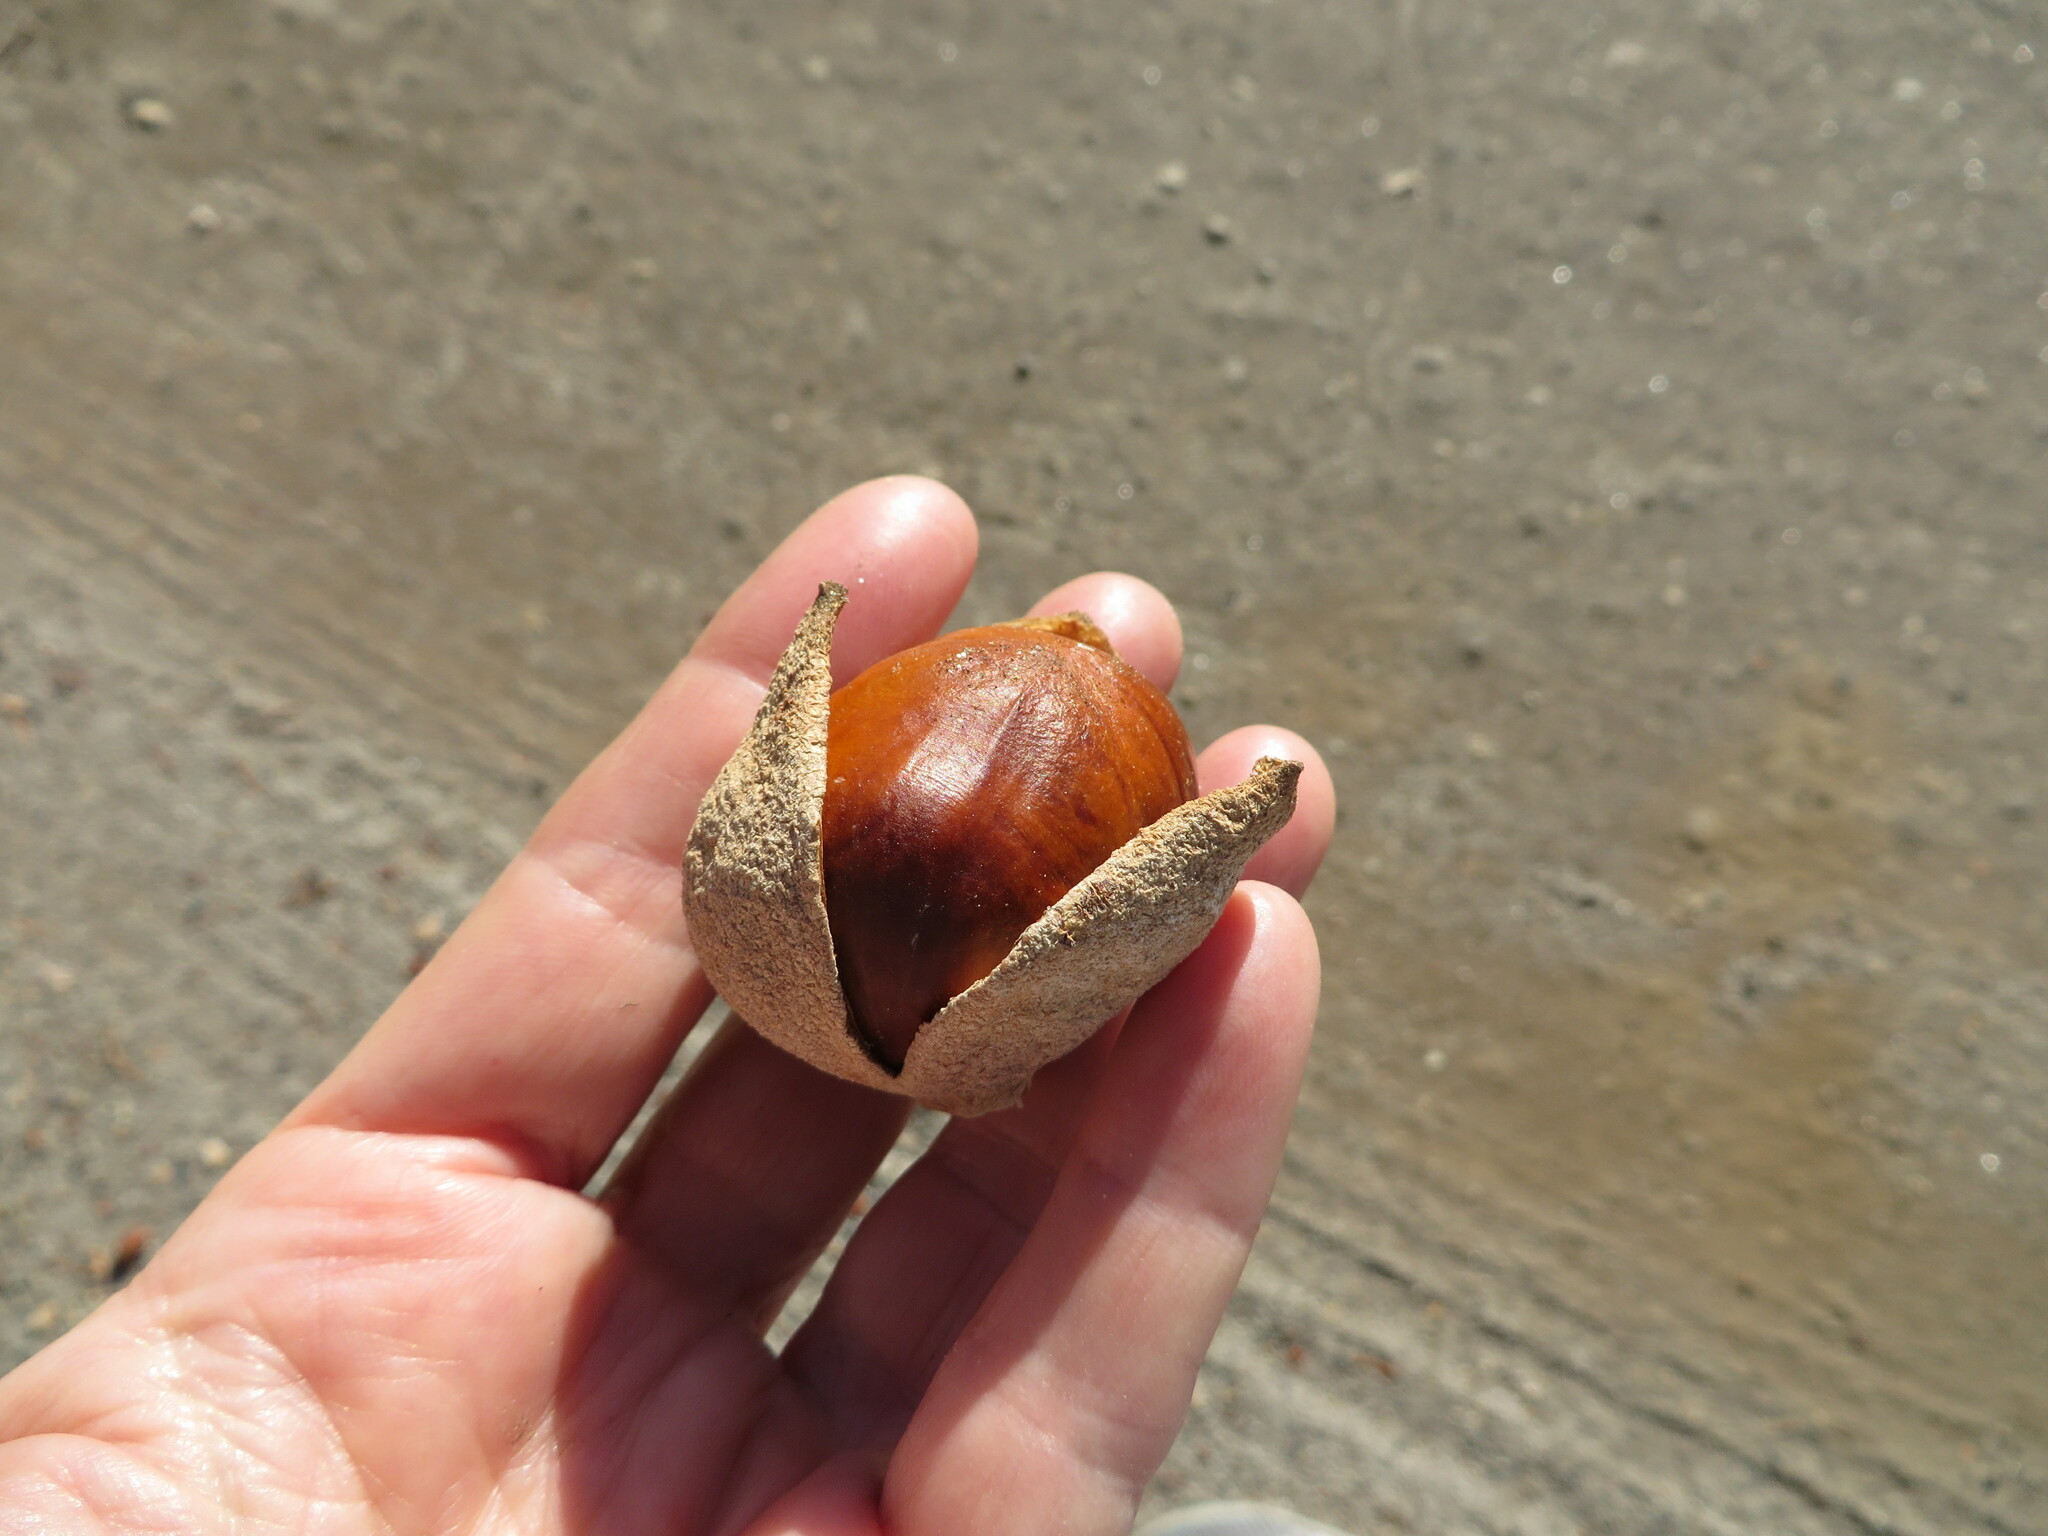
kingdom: Plantae
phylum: Tracheophyta
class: Magnoliopsida
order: Sapindales
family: Sapindaceae
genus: Aesculus
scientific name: Aesculus californica
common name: California buckeye
